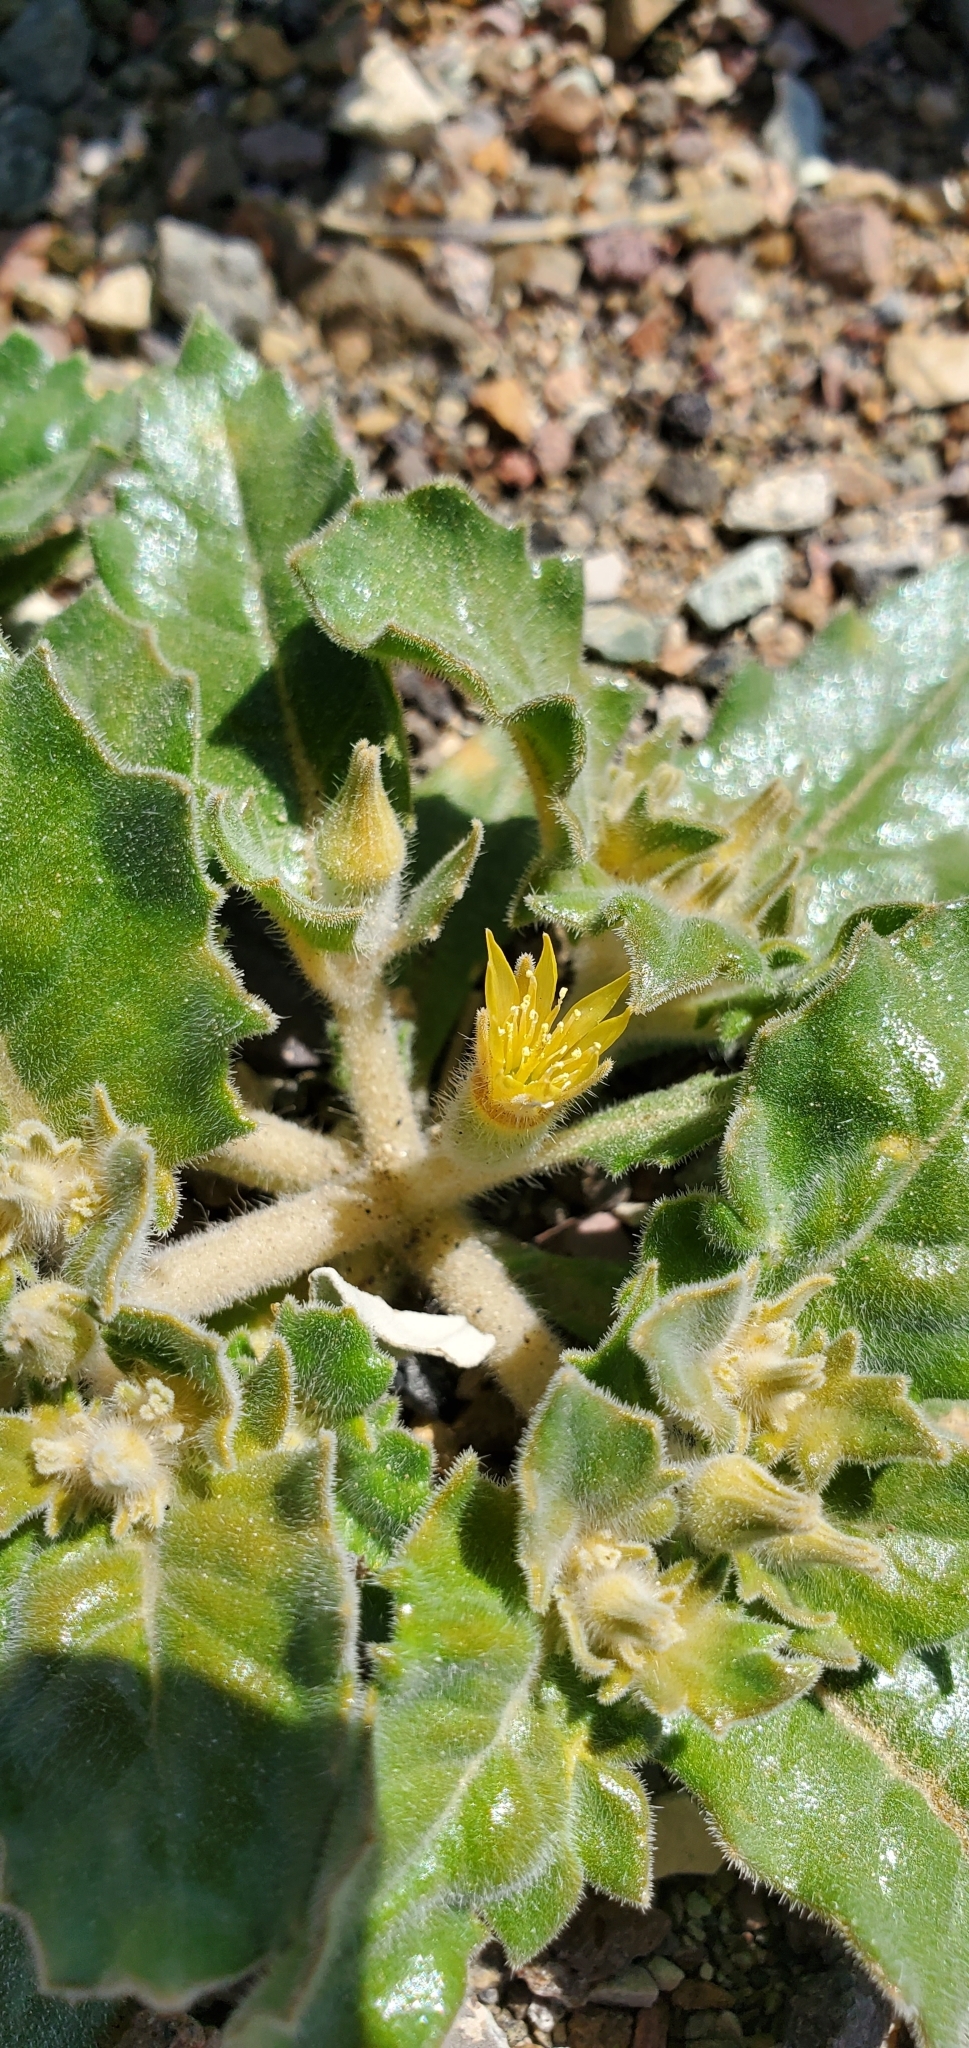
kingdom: Plantae
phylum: Tracheophyta
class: Magnoliopsida
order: Cornales
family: Loasaceae
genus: Mentzelia
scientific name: Mentzelia reflexa
